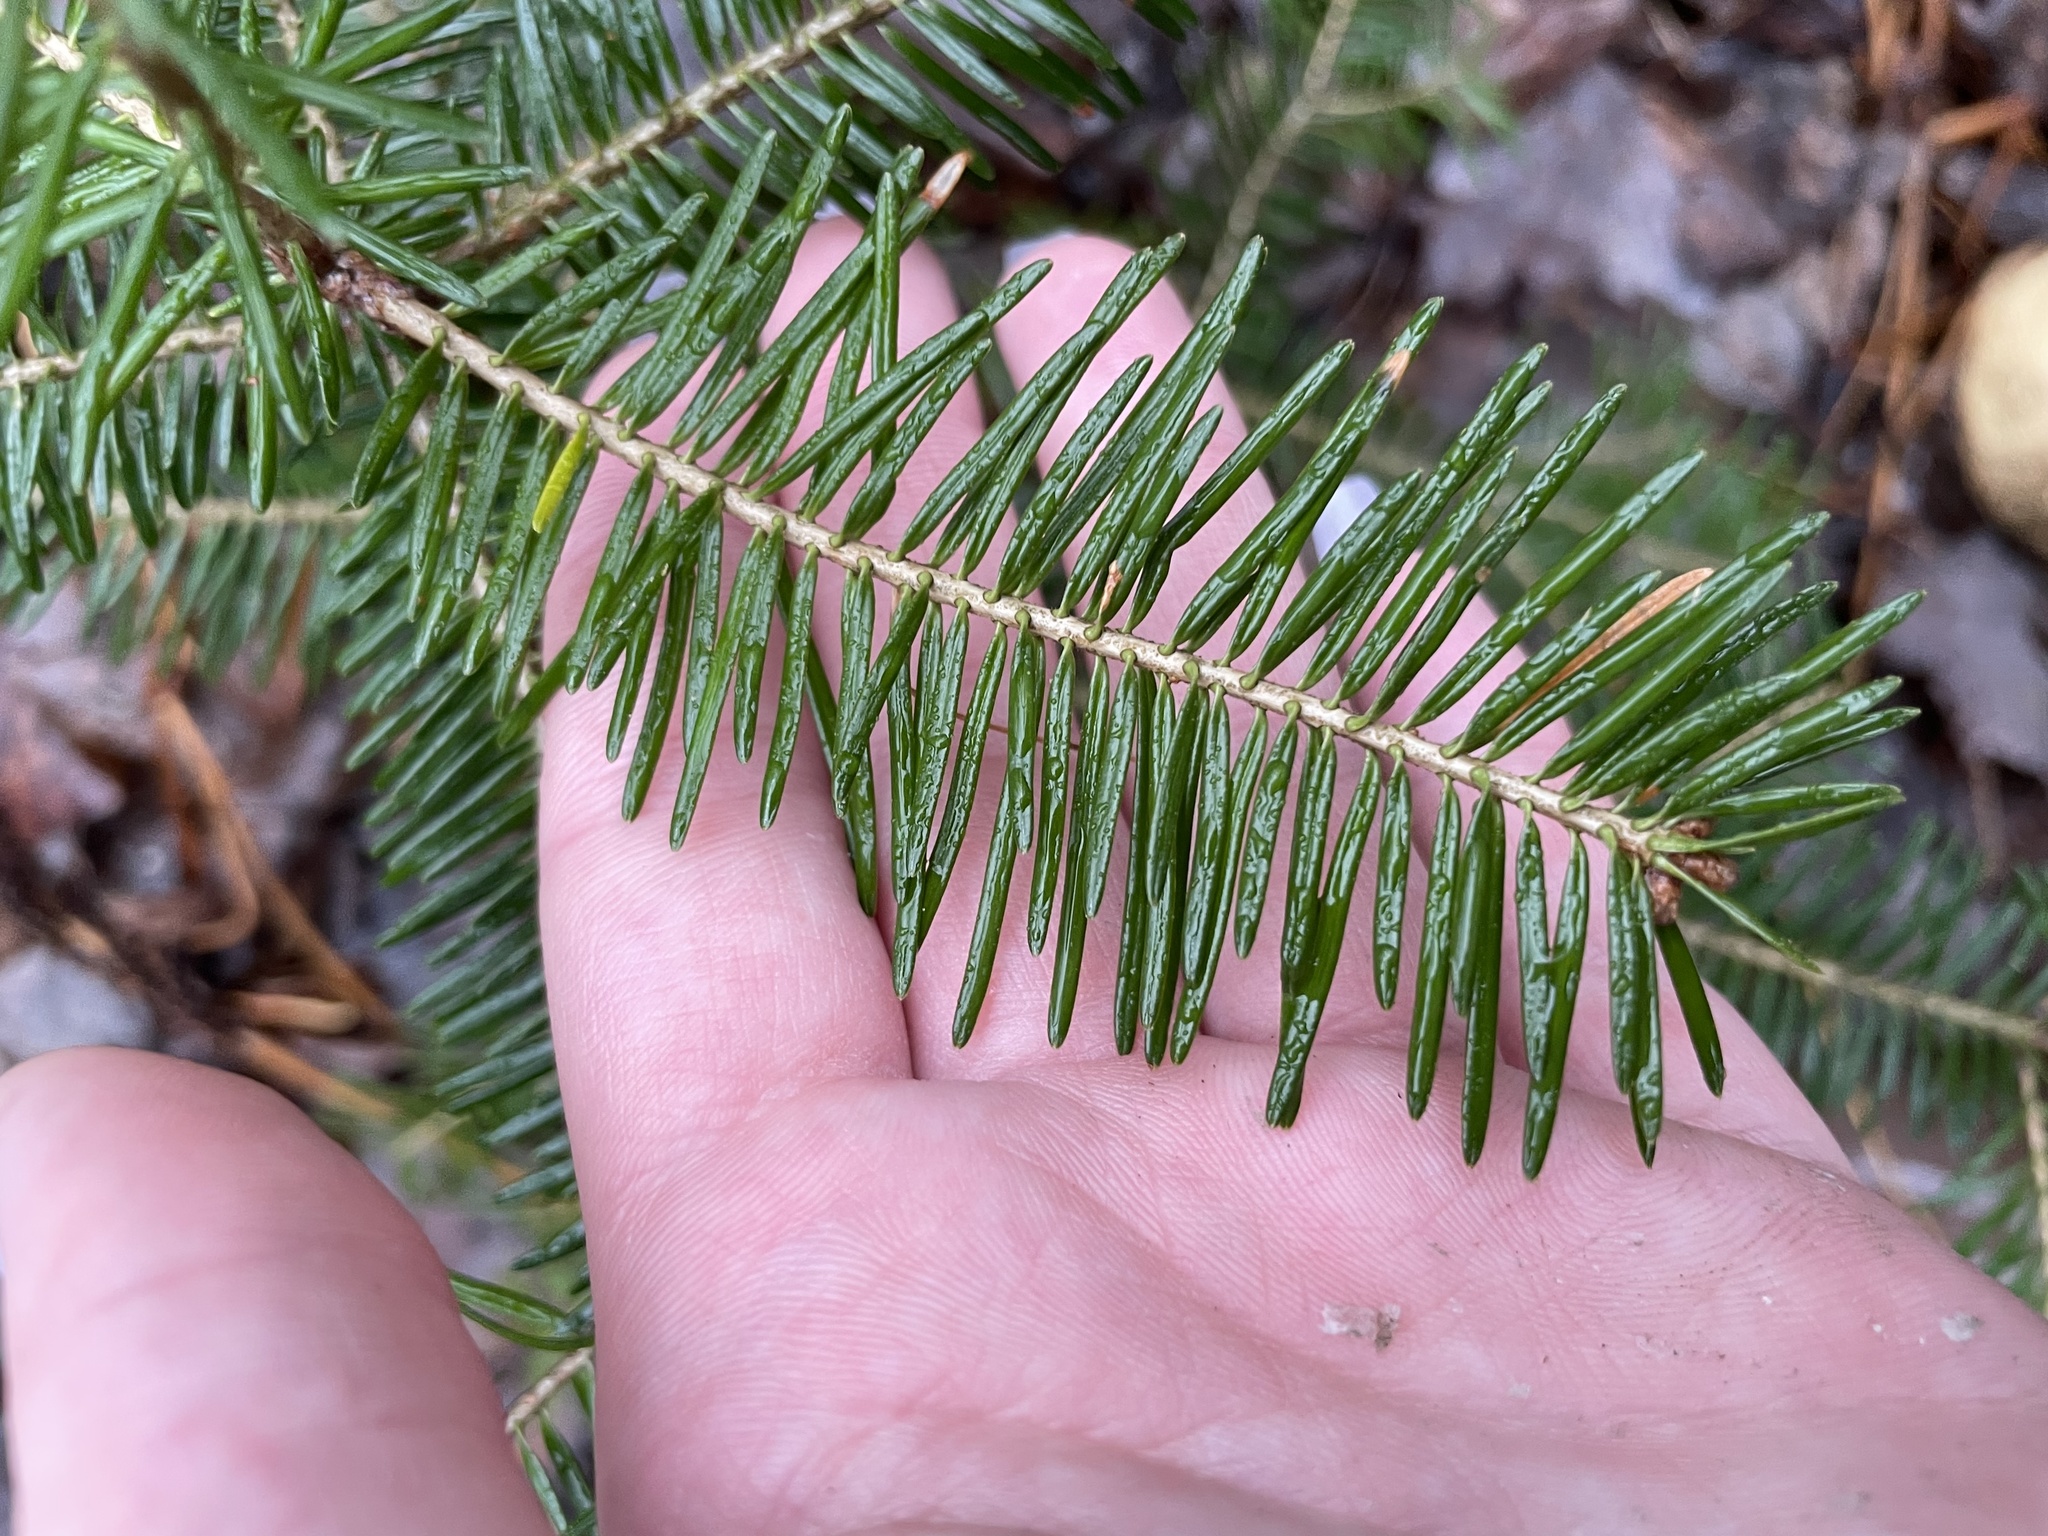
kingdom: Plantae
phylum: Tracheophyta
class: Pinopsida
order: Pinales
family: Pinaceae
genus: Abies
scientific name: Abies balsamea
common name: Balsam fir
